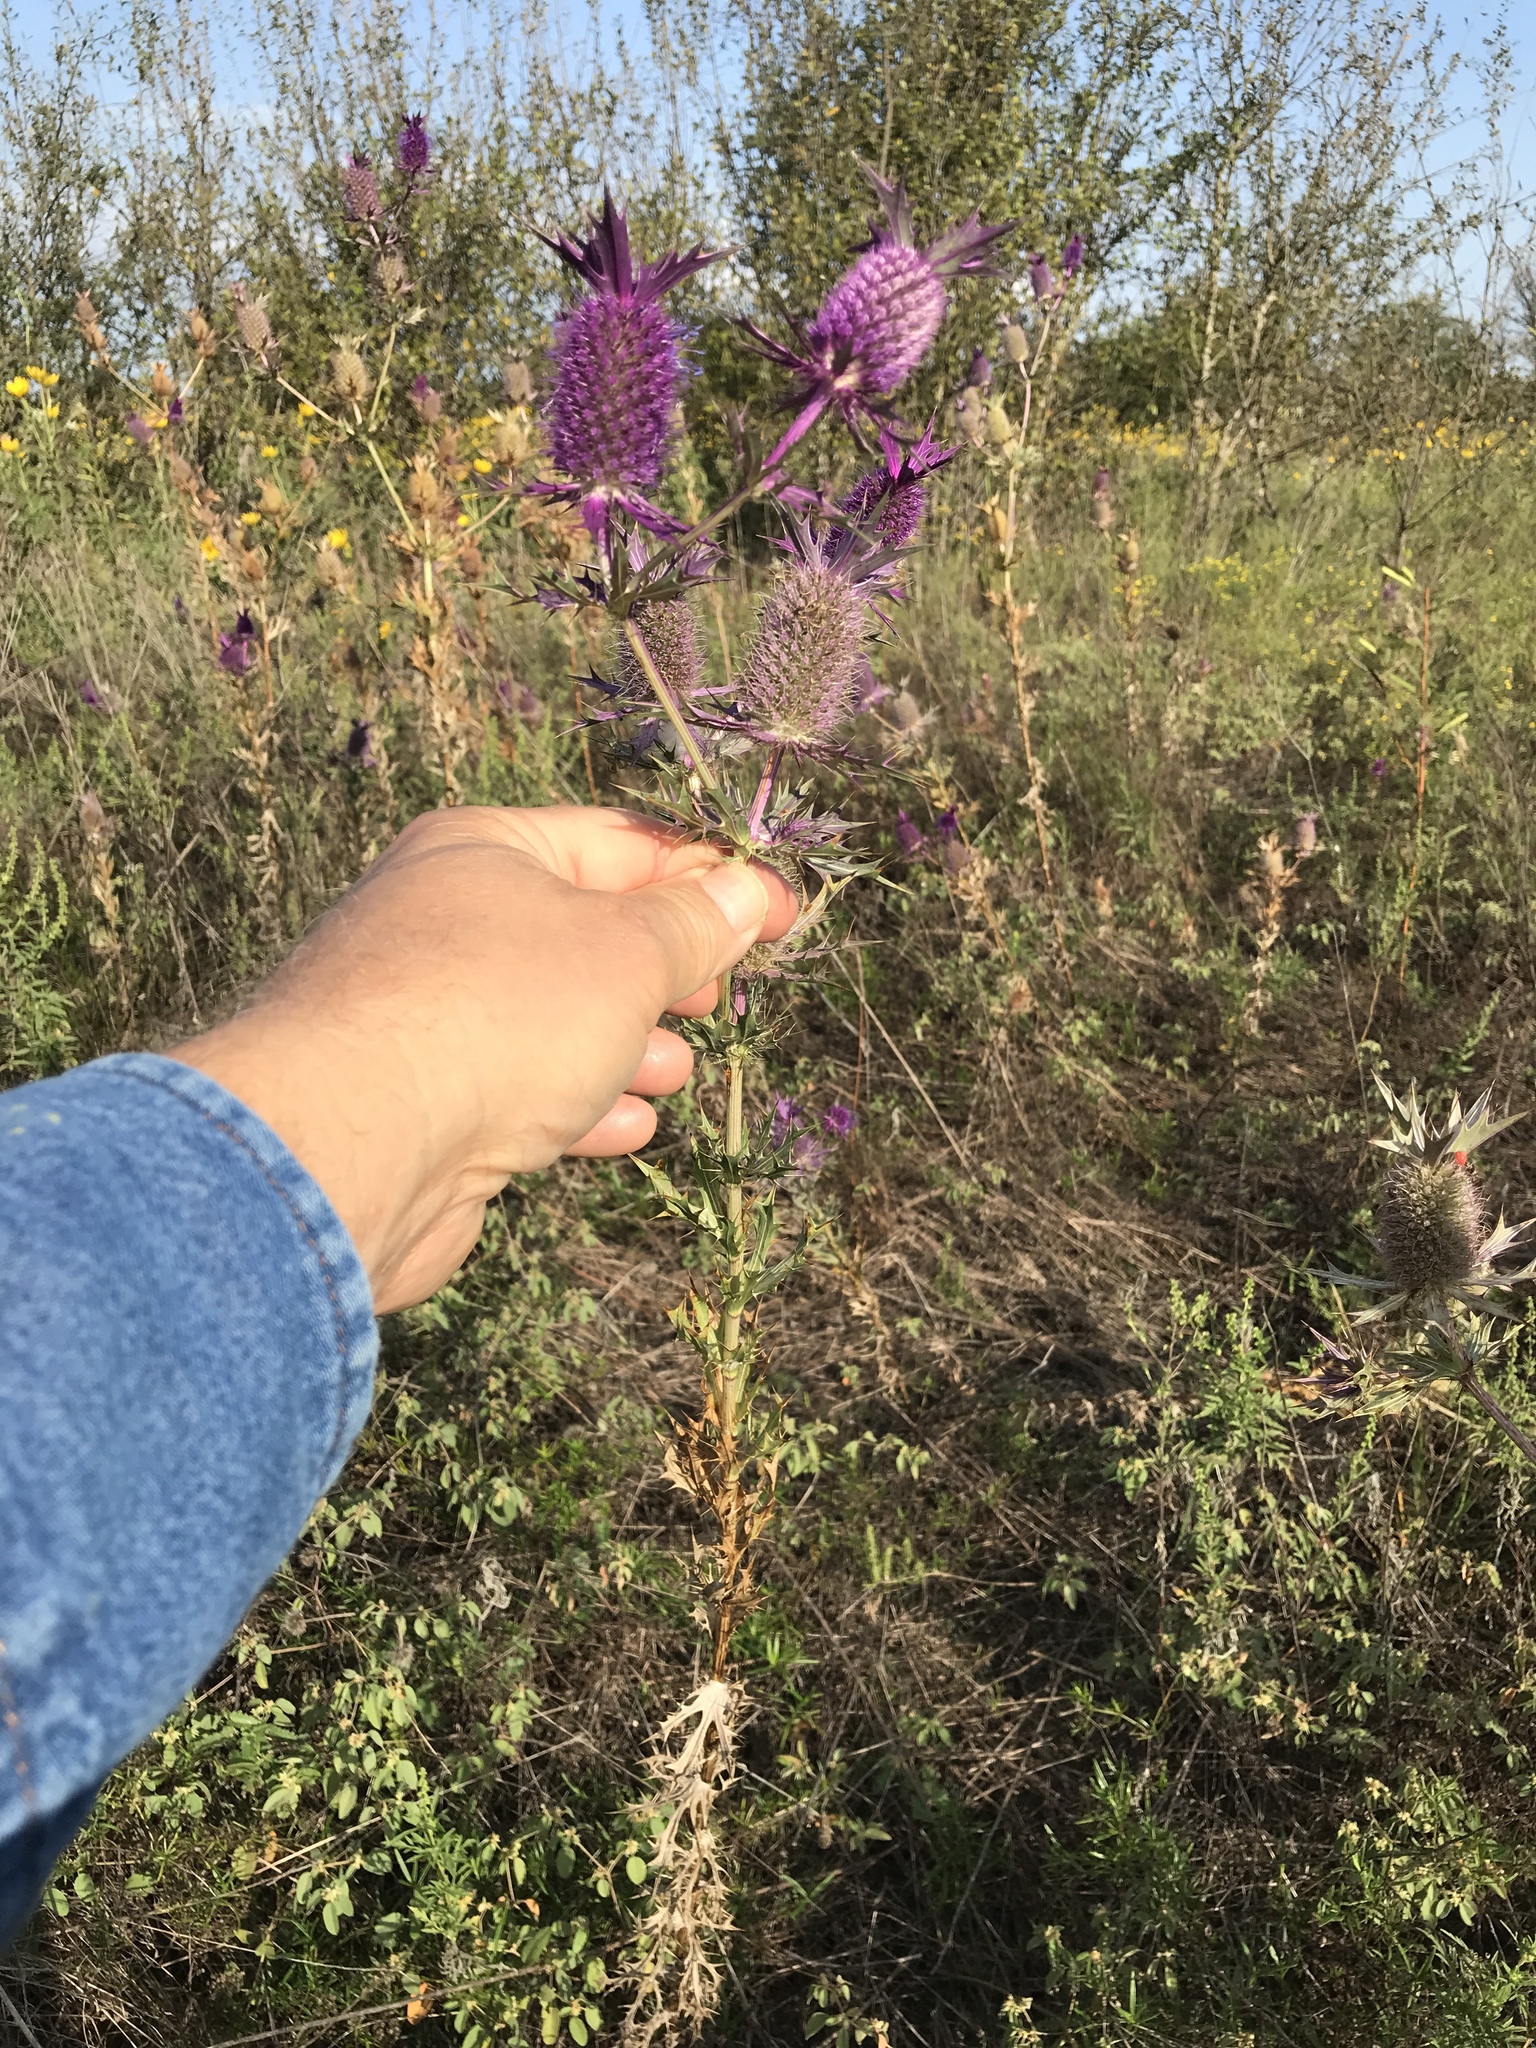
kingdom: Plantae
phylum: Tracheophyta
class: Magnoliopsida
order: Apiales
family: Apiaceae
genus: Eryngium
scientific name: Eryngium leavenworthii
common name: Leavenworth's eryngo
